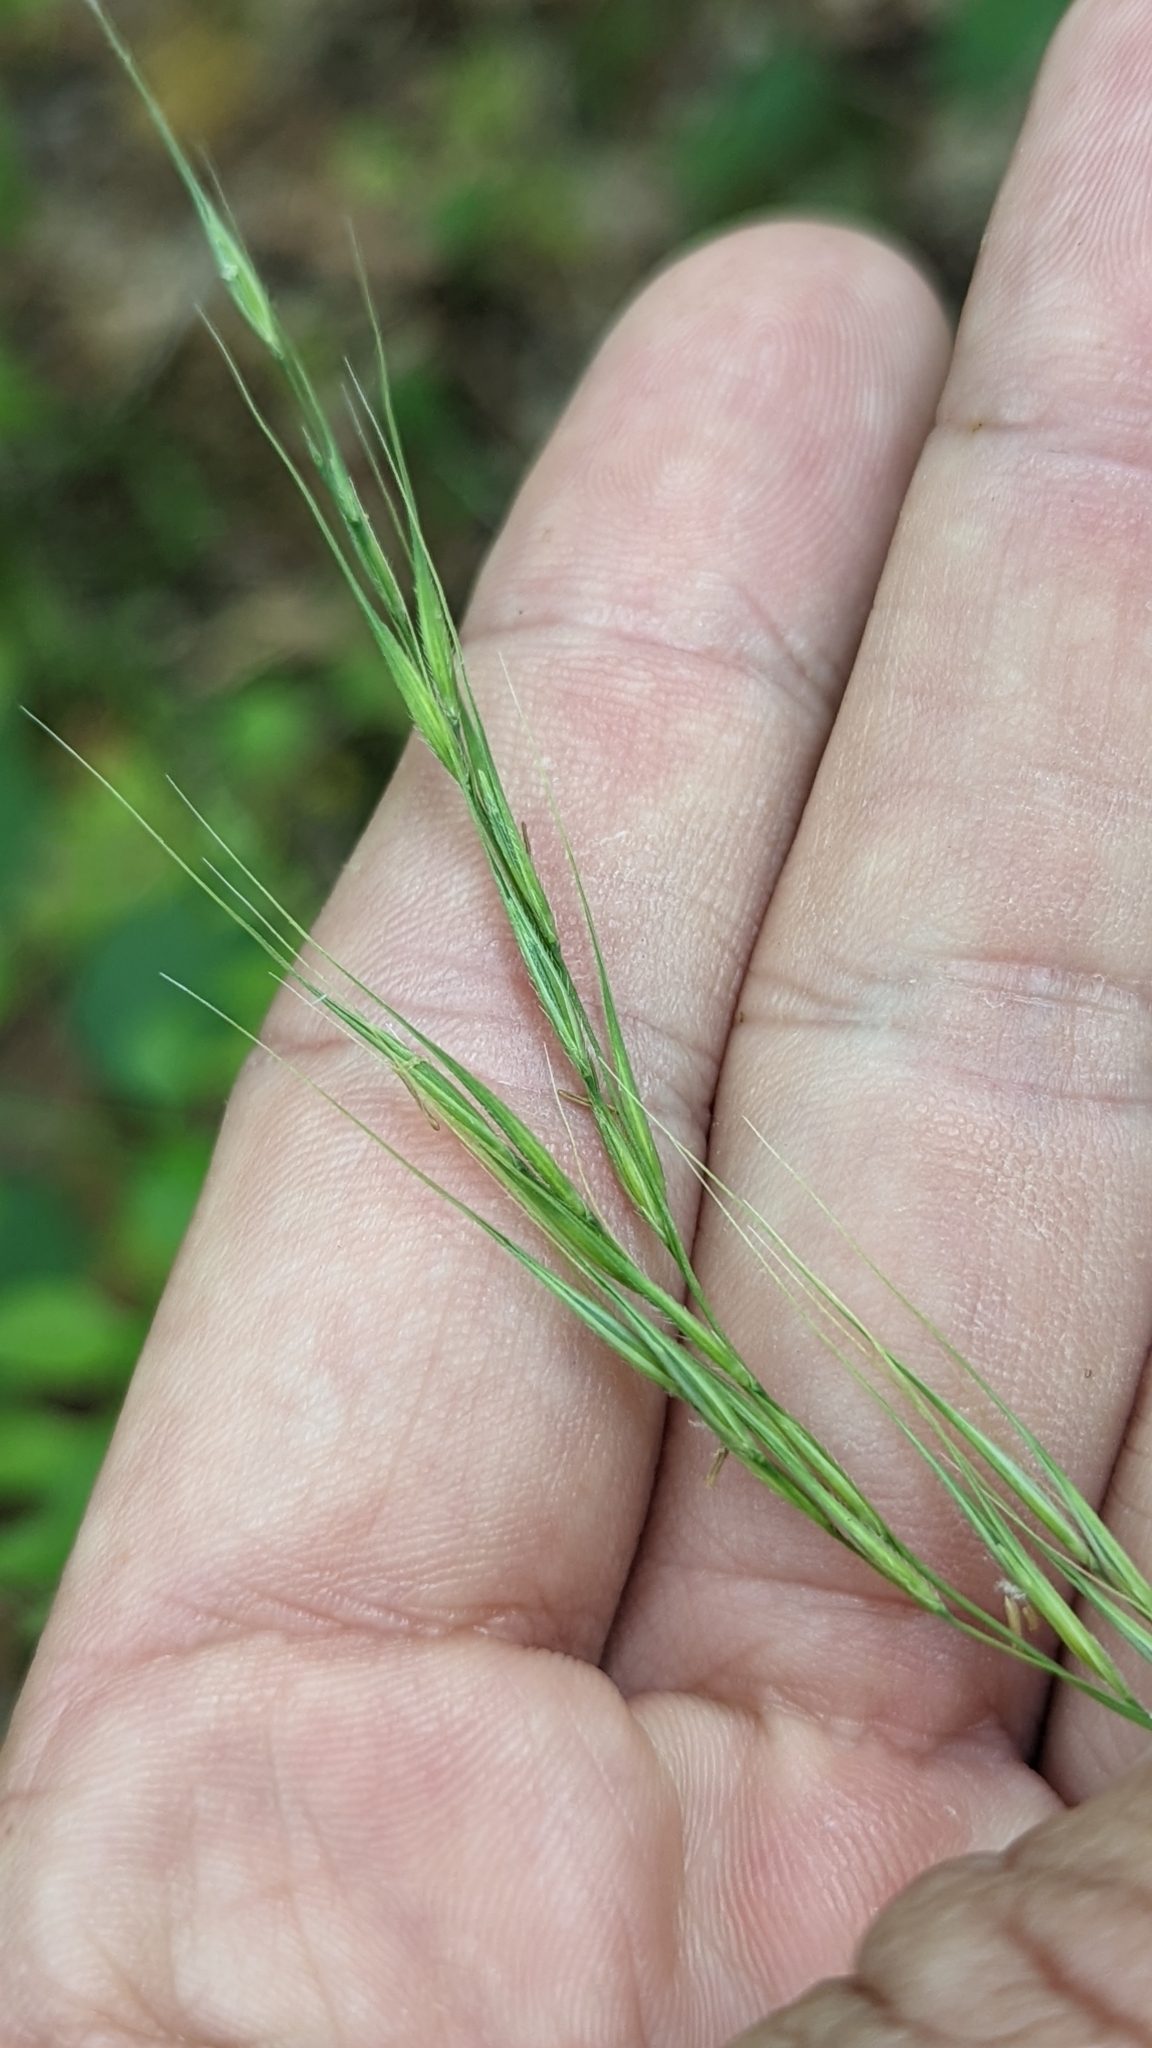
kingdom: Plantae
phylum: Tracheophyta
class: Liliopsida
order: Poales
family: Poaceae
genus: Brachyelytrum
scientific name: Brachyelytrum erectum
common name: Bearded shorthusk
